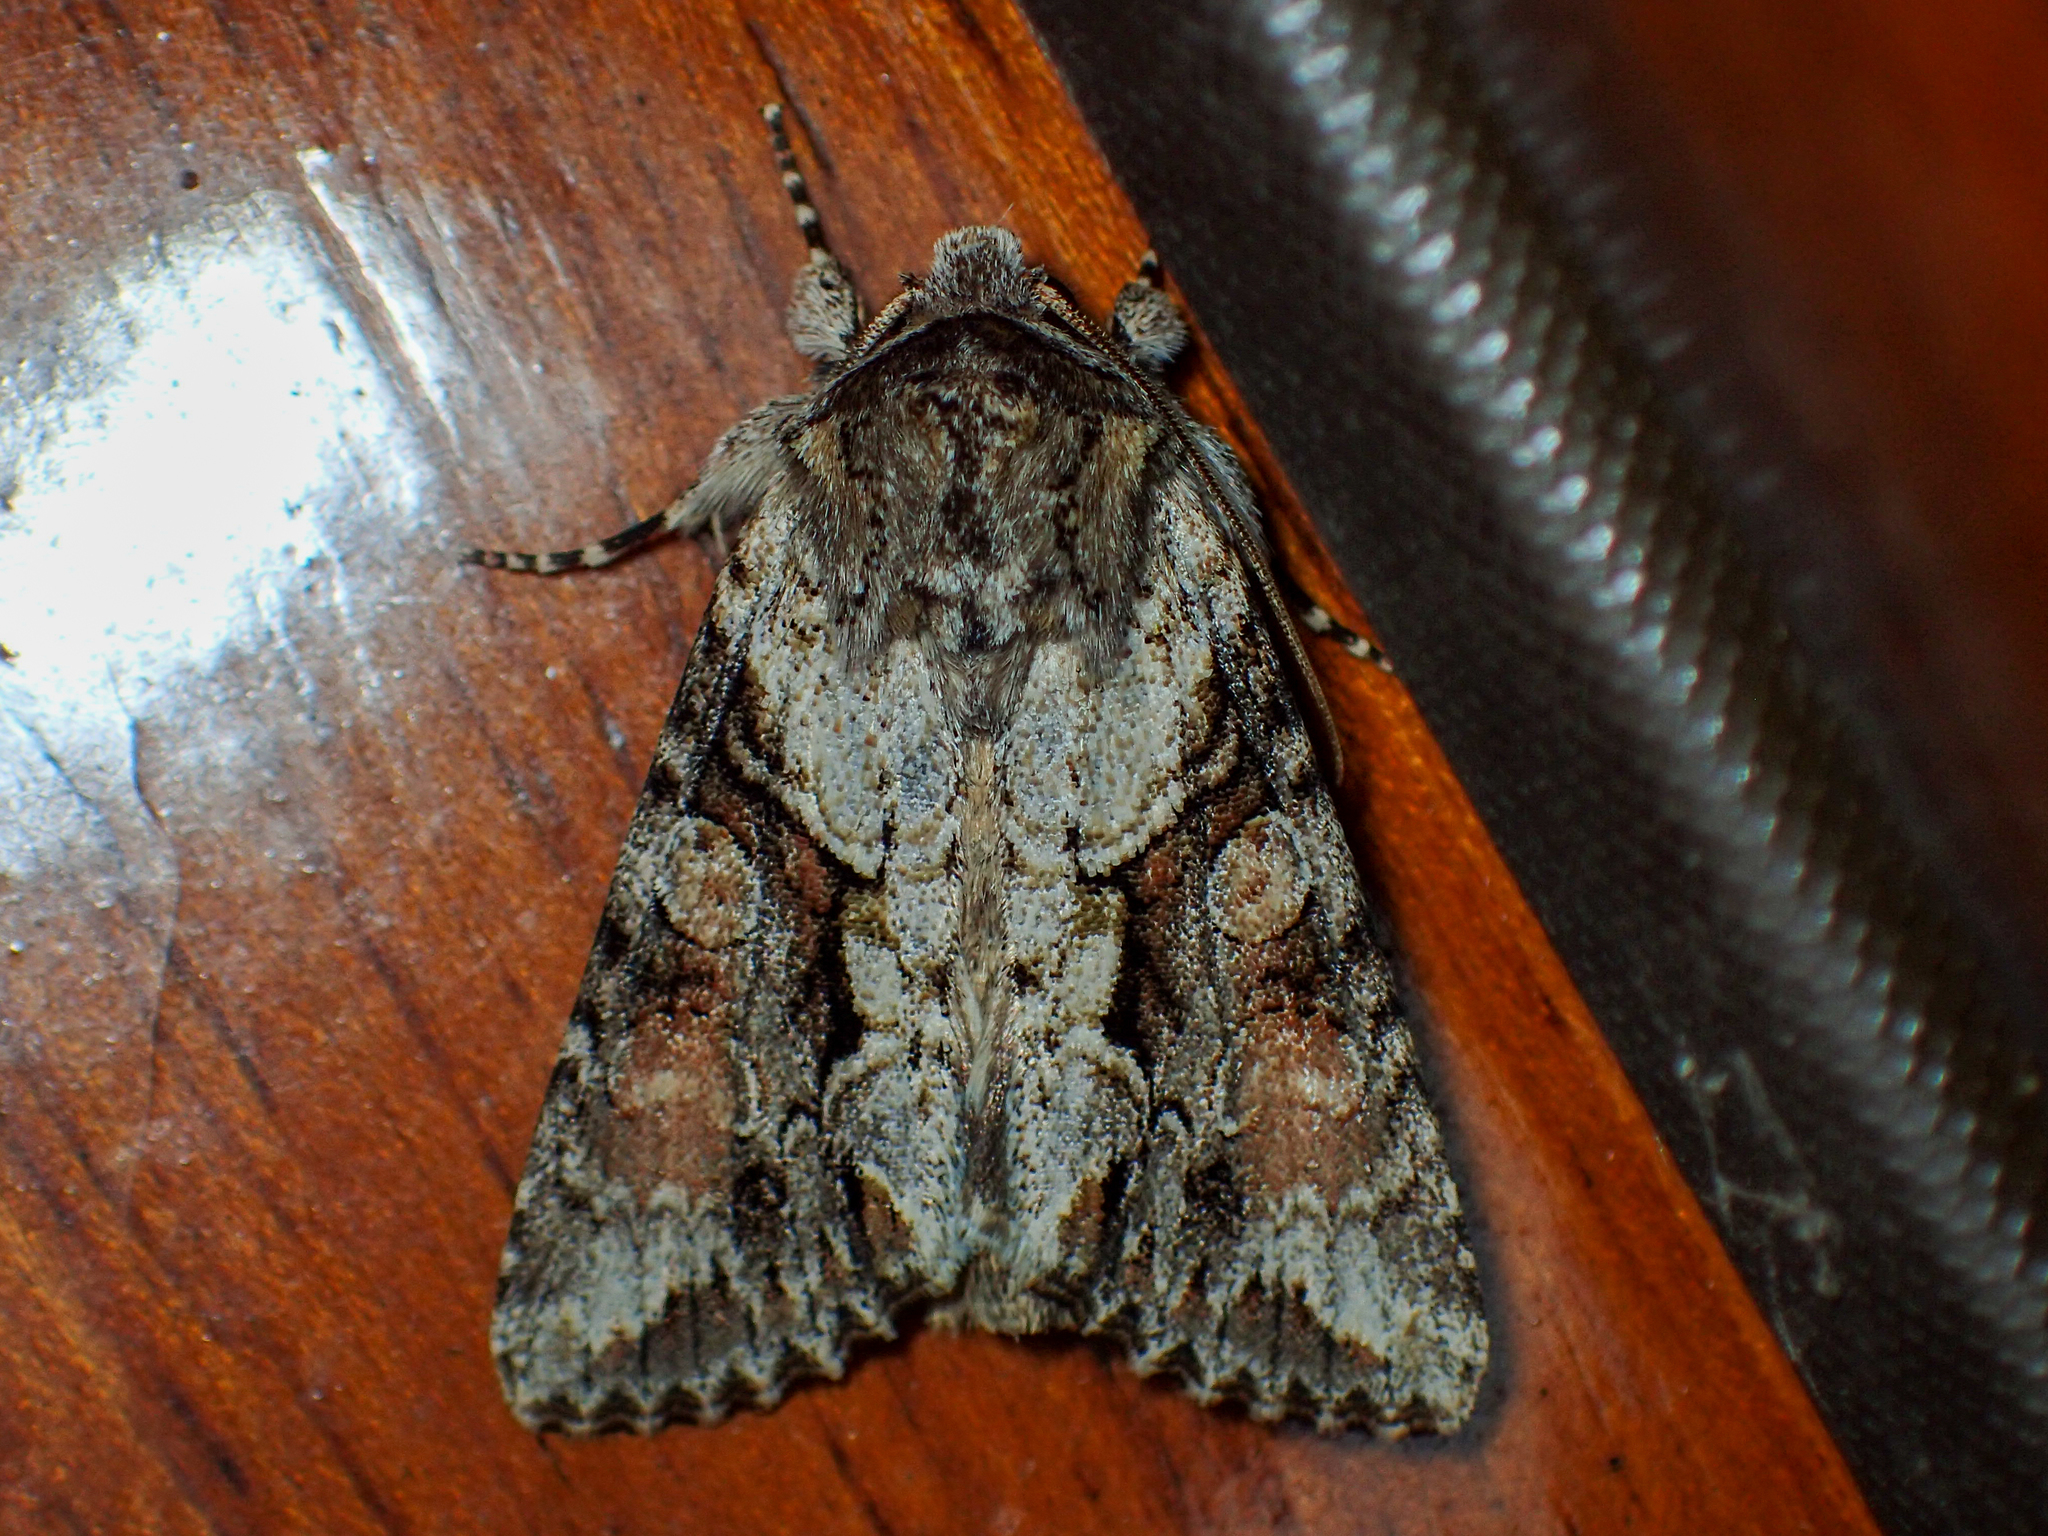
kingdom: Animalia
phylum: Arthropoda
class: Insecta
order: Lepidoptera
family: Noctuidae
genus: Achatia
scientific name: Achatia distincta
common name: Distinct quaker
